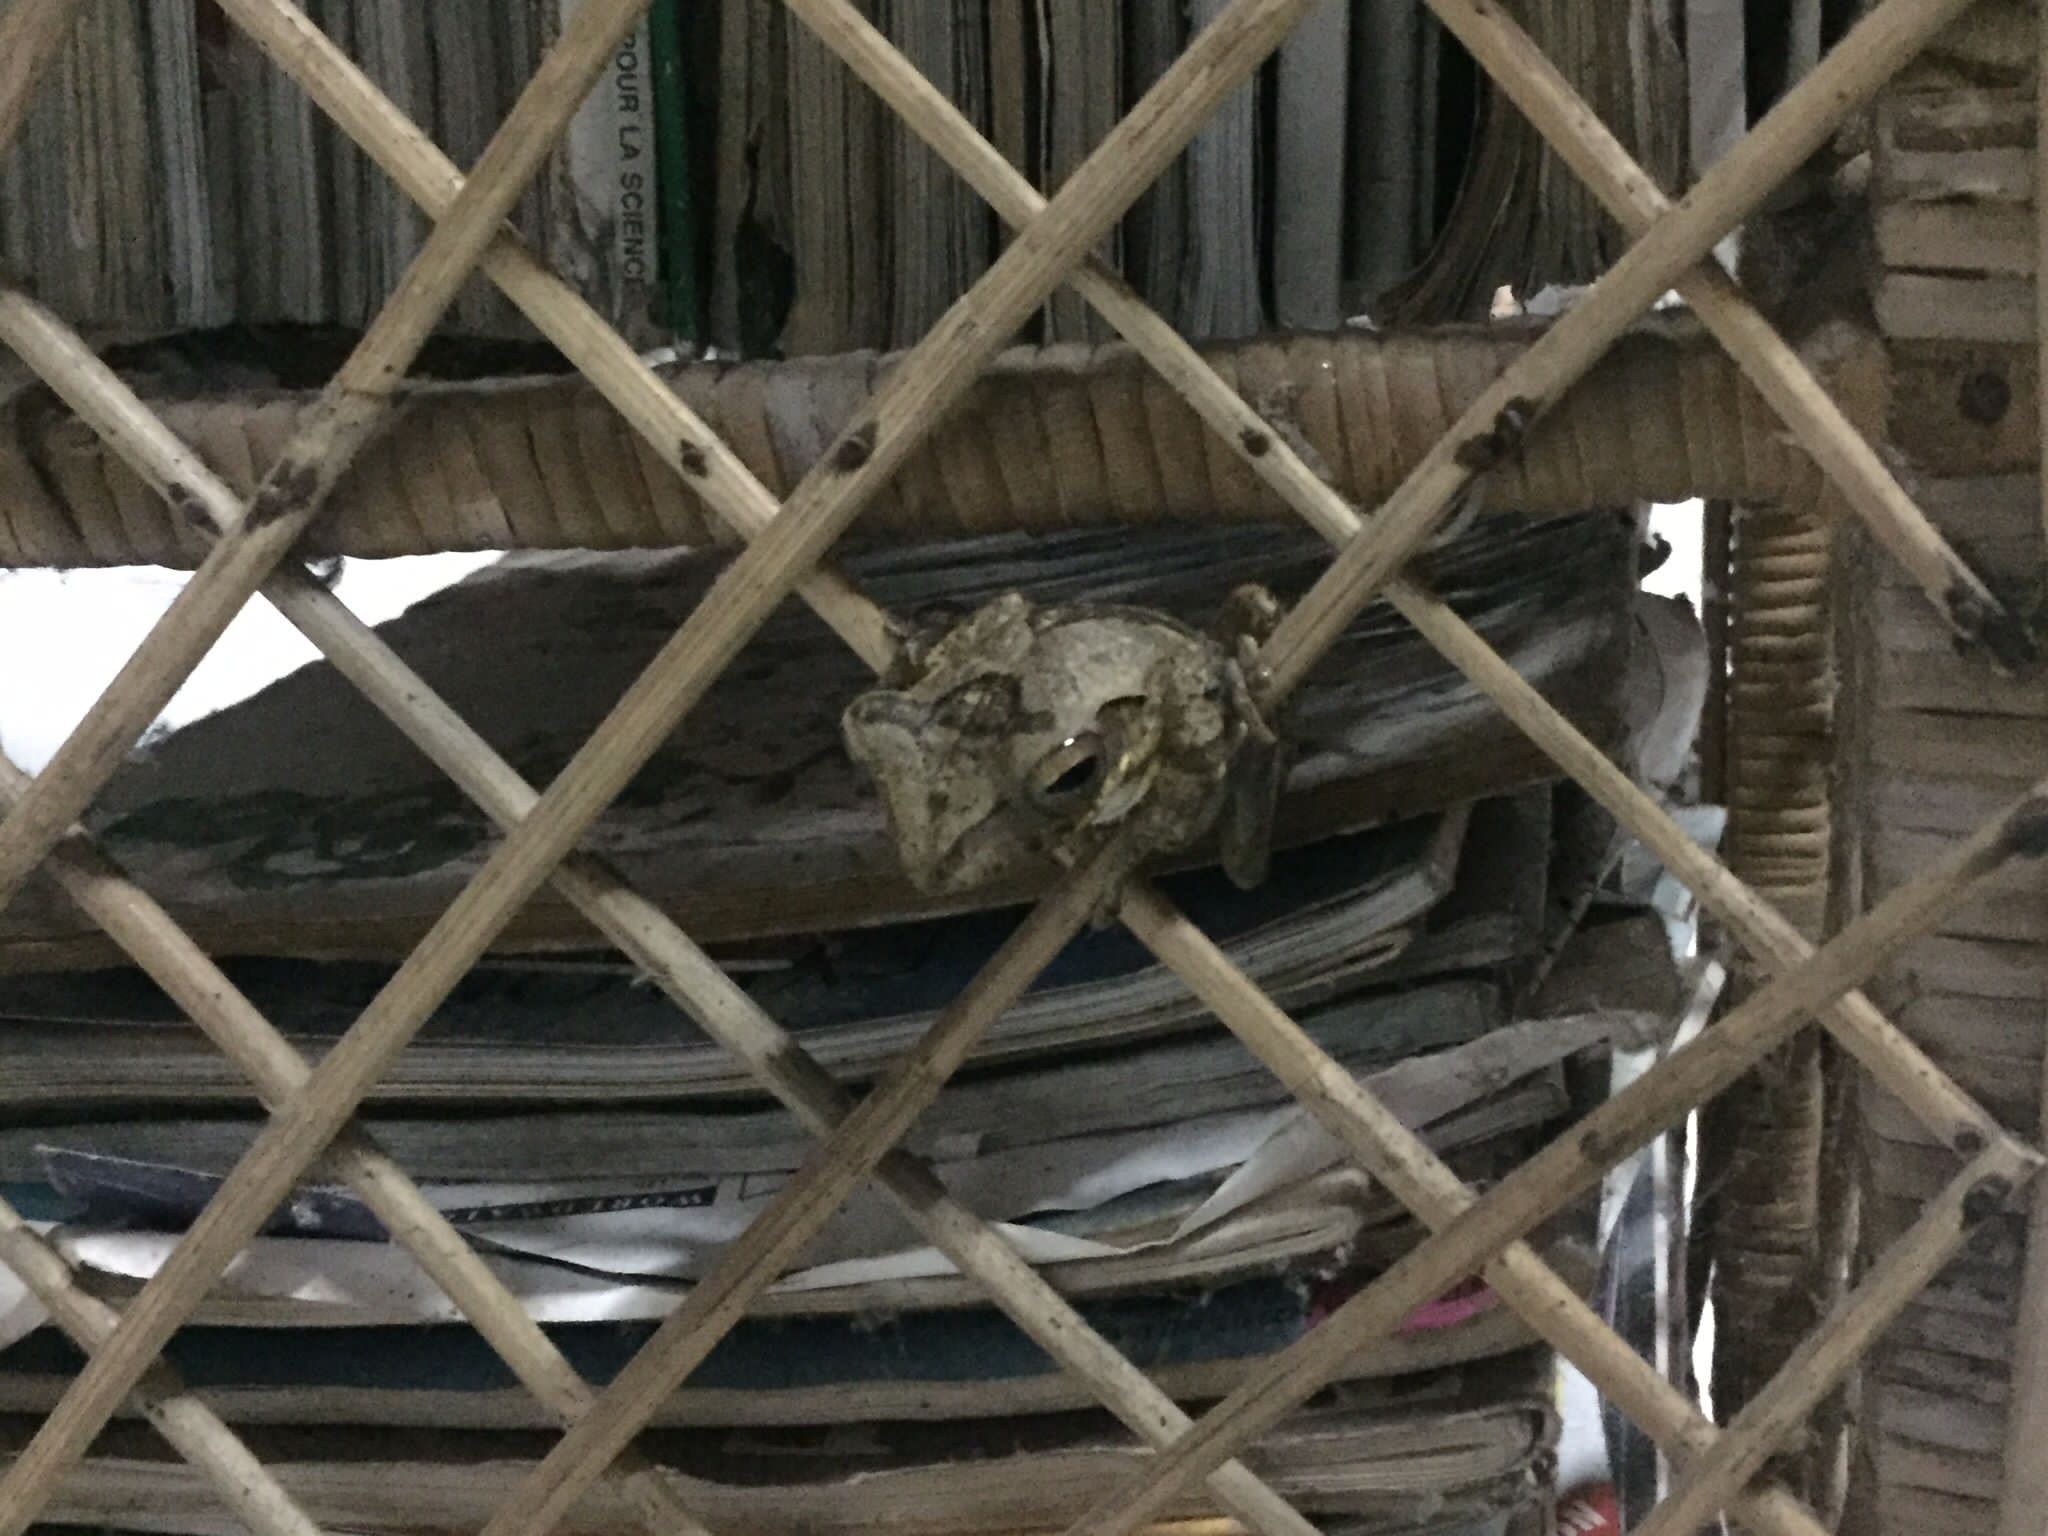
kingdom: Animalia
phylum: Chordata
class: Amphibia
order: Anura
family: Rhacophoridae
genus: Polypedates
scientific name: Polypedates cruciger
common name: Common hour-glass tree-frog
